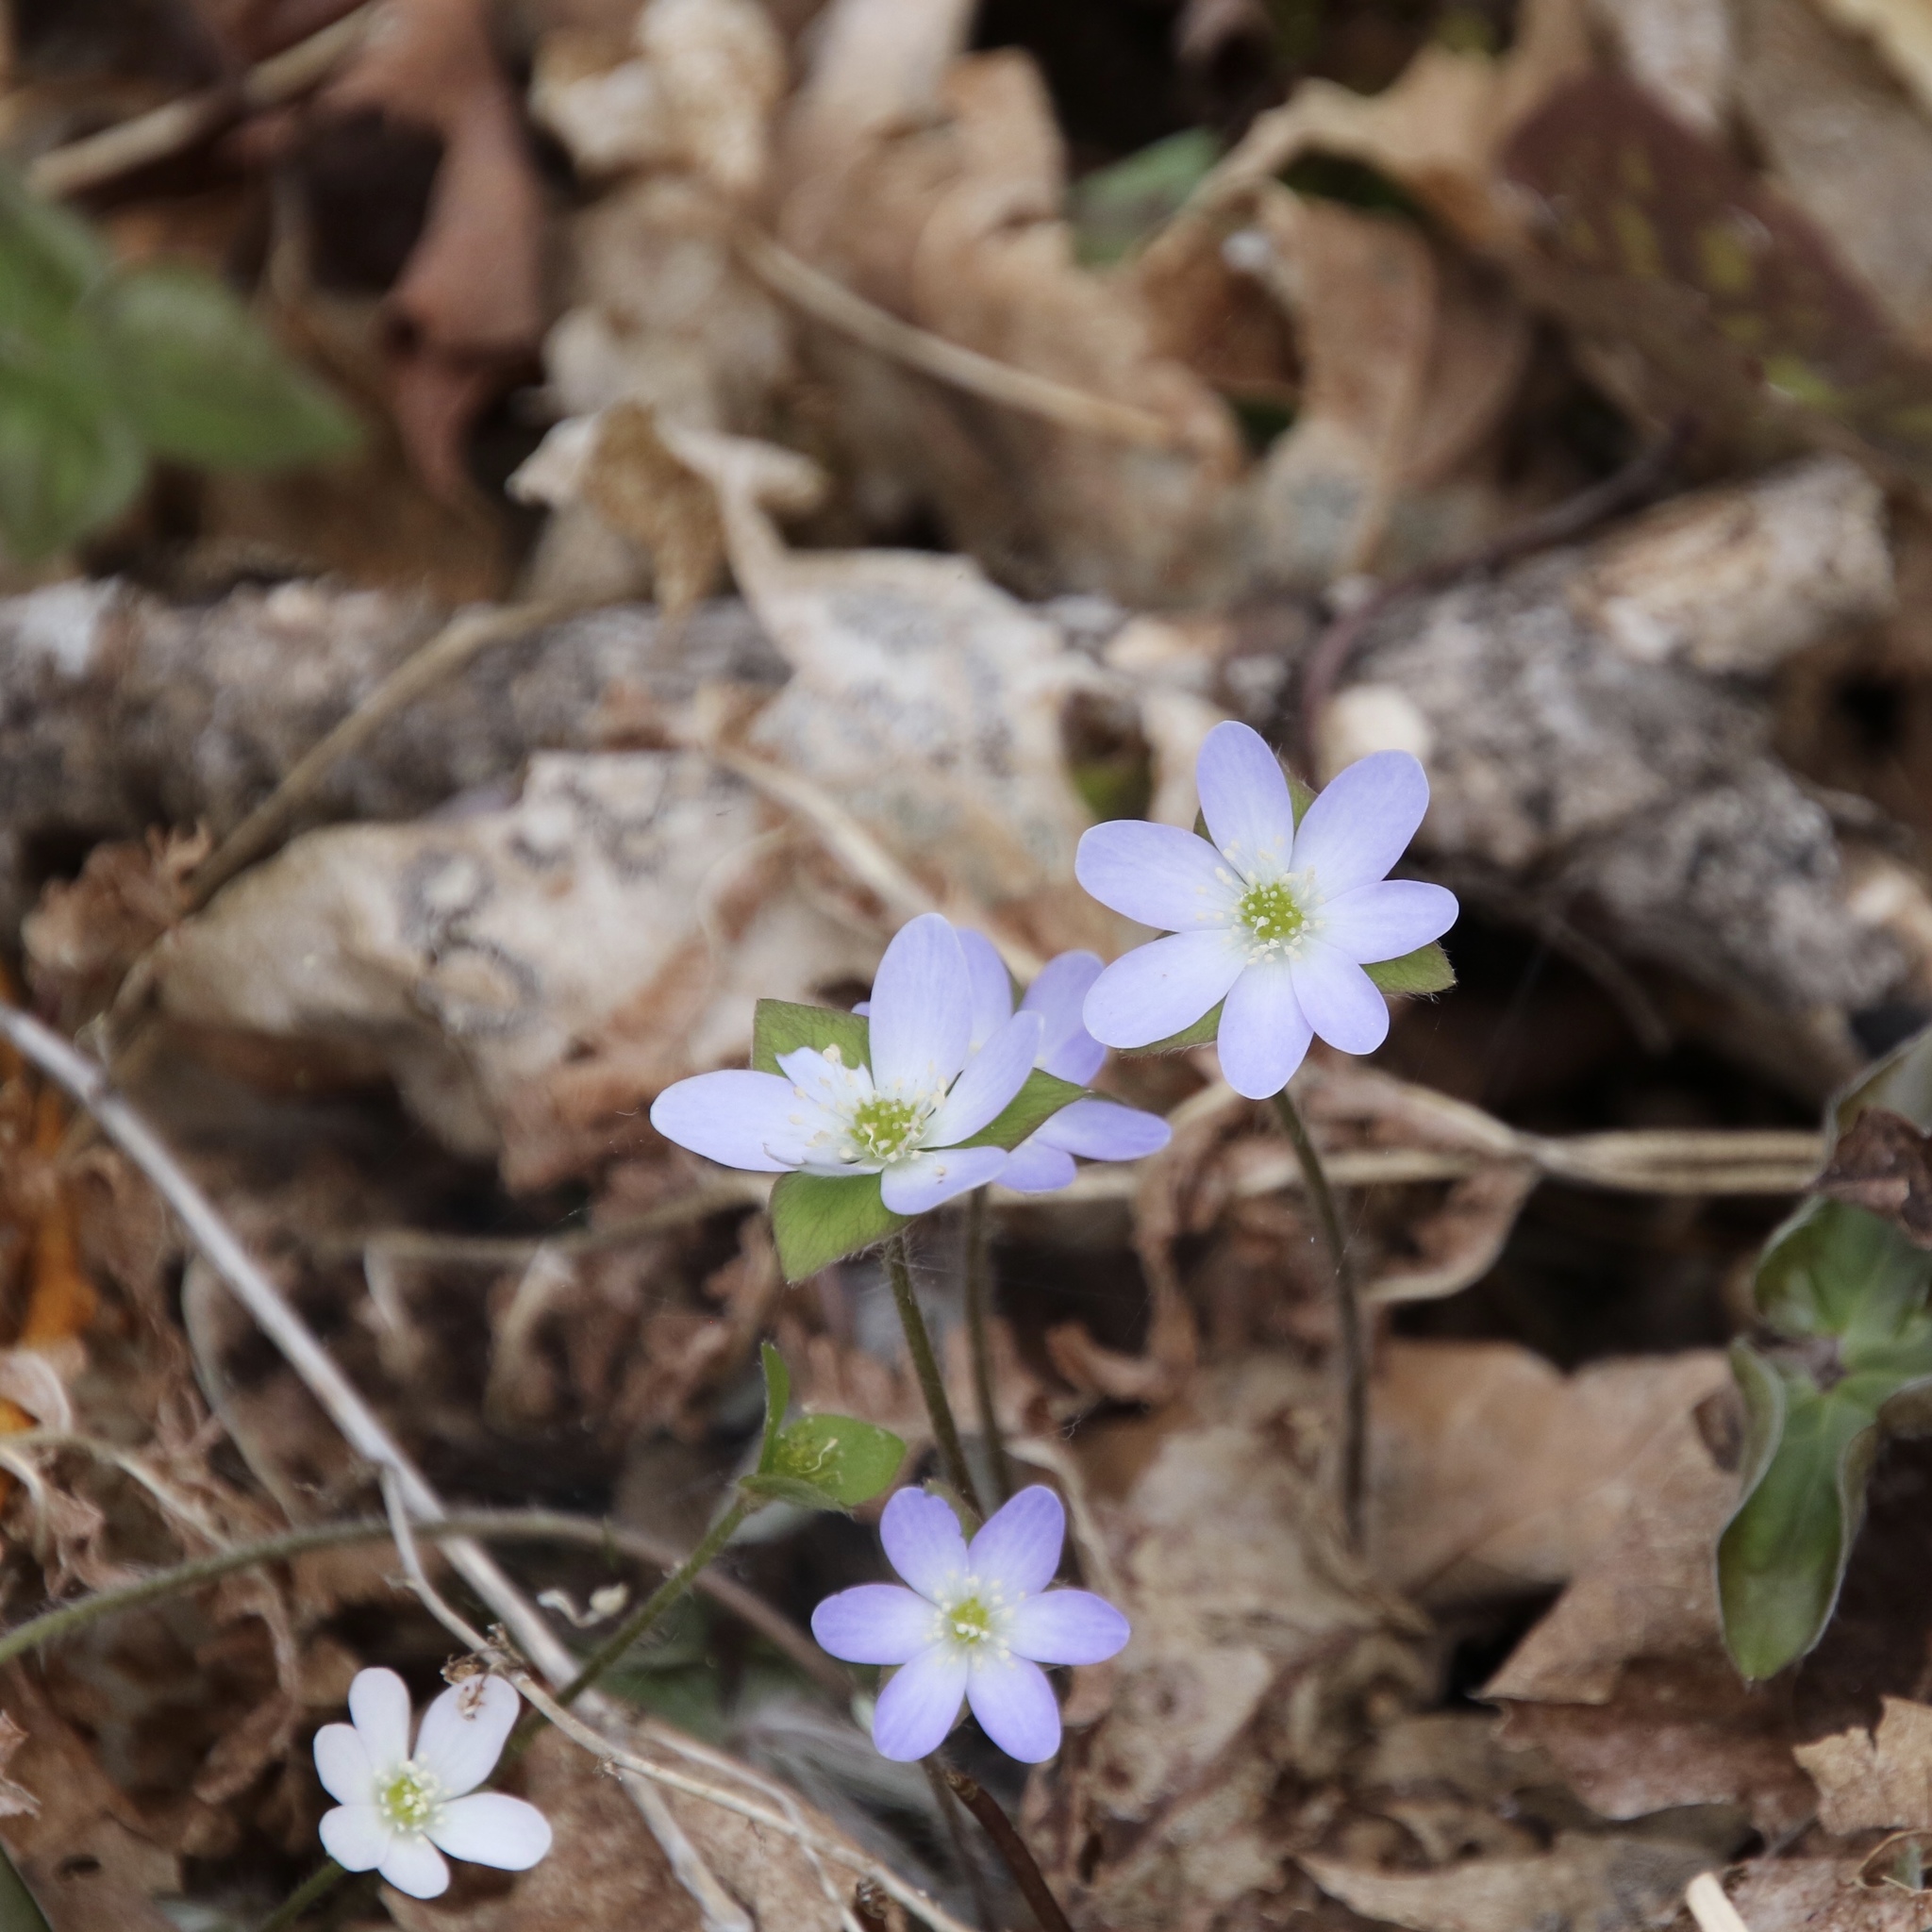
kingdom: Plantae
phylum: Tracheophyta
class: Magnoliopsida
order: Ranunculales
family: Ranunculaceae
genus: Hepatica
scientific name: Hepatica acutiloba
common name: Sharp-lobed hepatica
